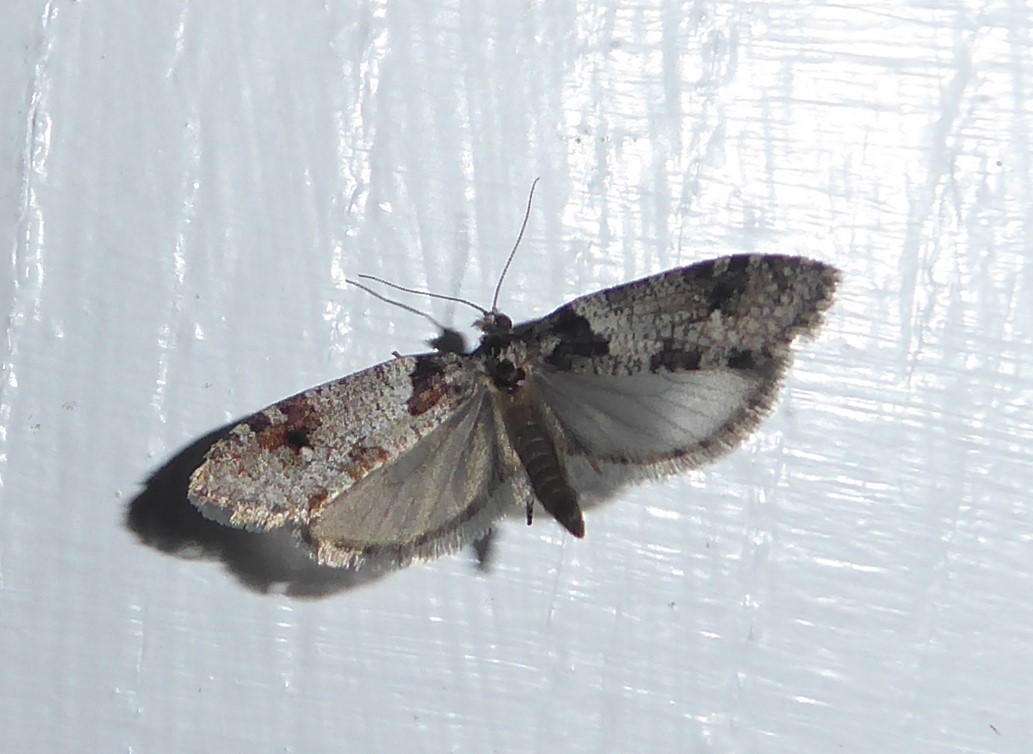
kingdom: Animalia
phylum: Arthropoda
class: Insecta
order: Lepidoptera
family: Psychidae
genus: Lepidoscia
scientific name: Lepidoscia heliochares
